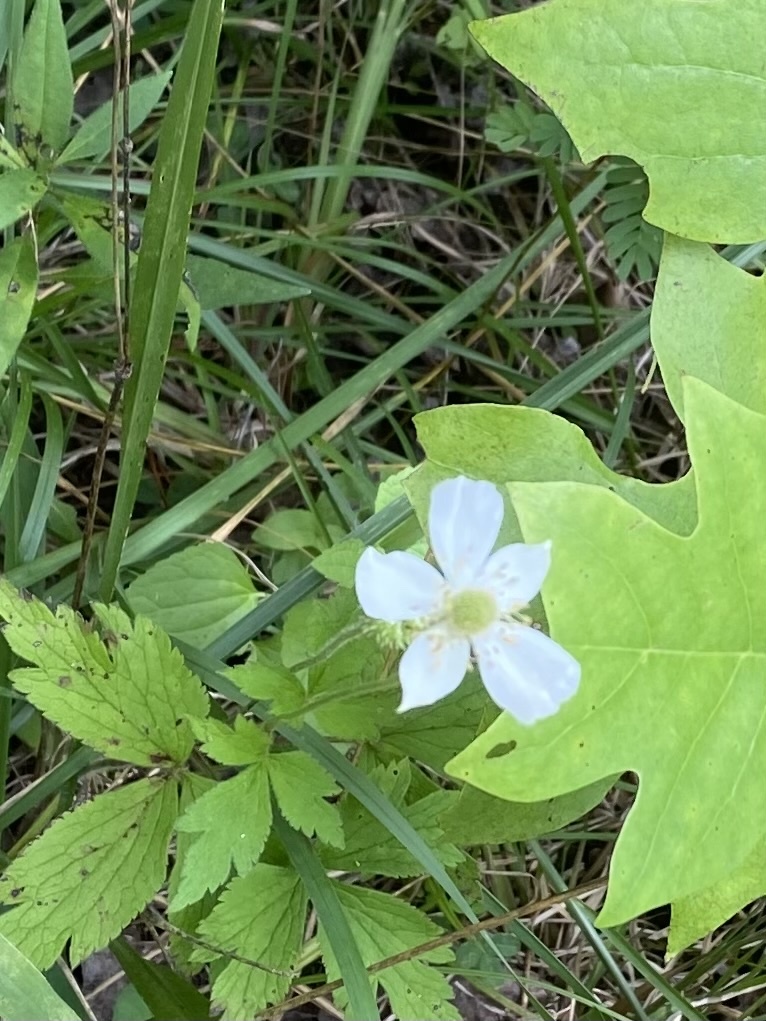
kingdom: Plantae
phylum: Tracheophyta
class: Magnoliopsida
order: Ranunculales
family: Ranunculaceae
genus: Anemone
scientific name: Anemone virginiana
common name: Tall anemone
